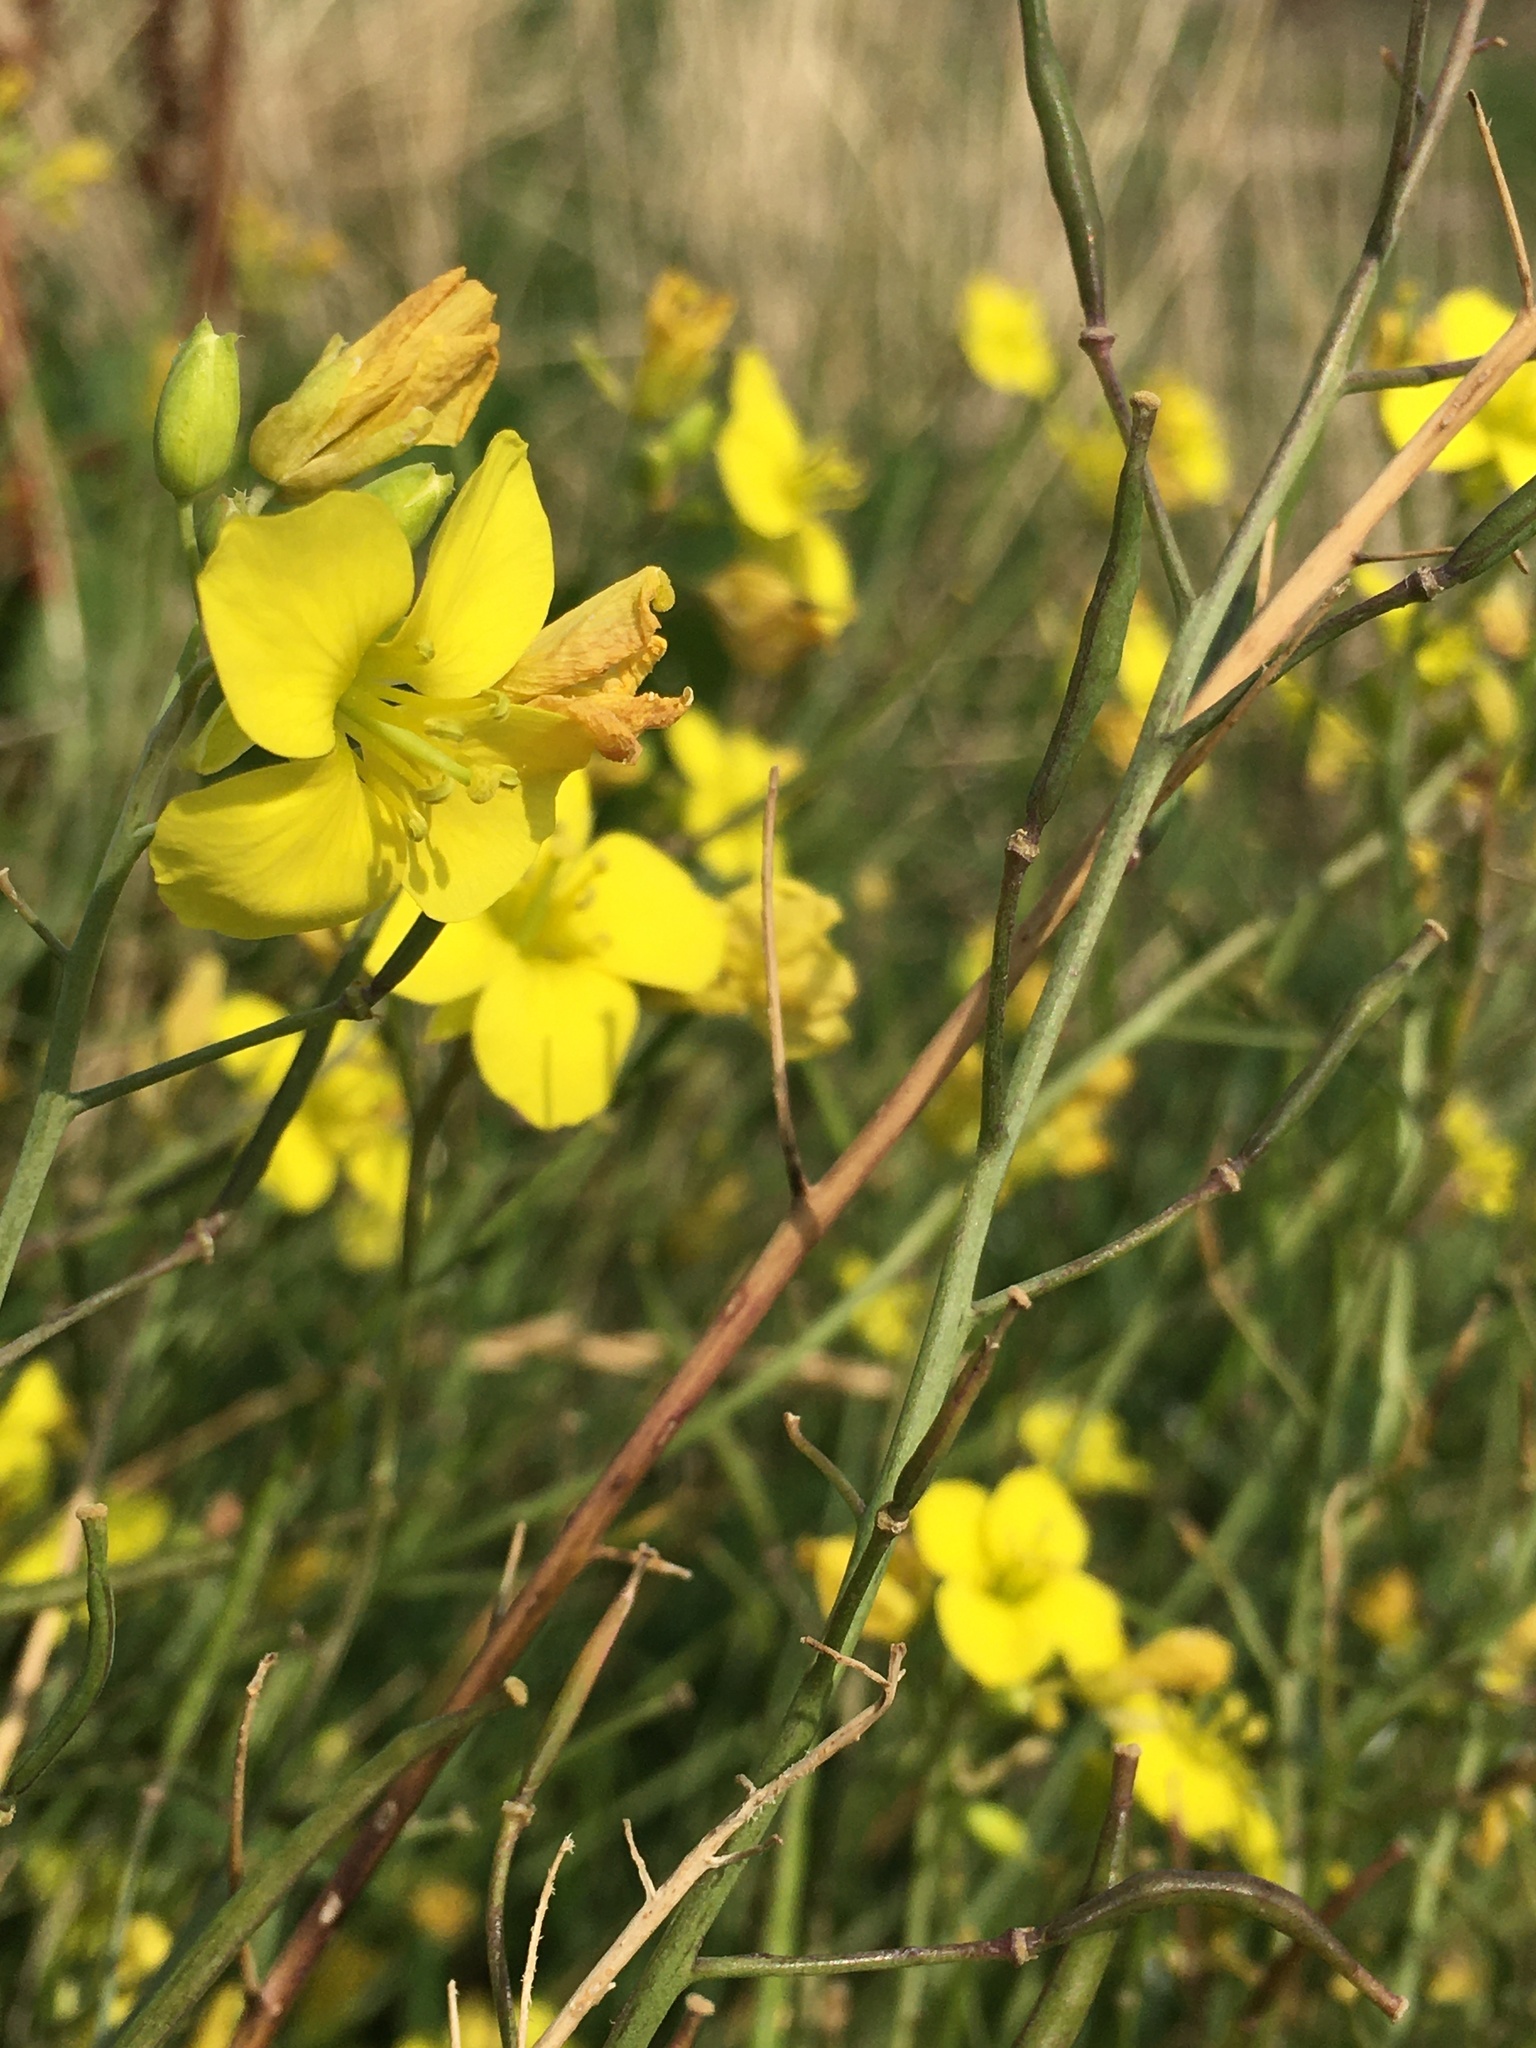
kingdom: Plantae
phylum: Tracheophyta
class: Magnoliopsida
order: Brassicales
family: Brassicaceae
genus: Diplotaxis
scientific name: Diplotaxis tenuifolia
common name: Perennial wall-rocket
